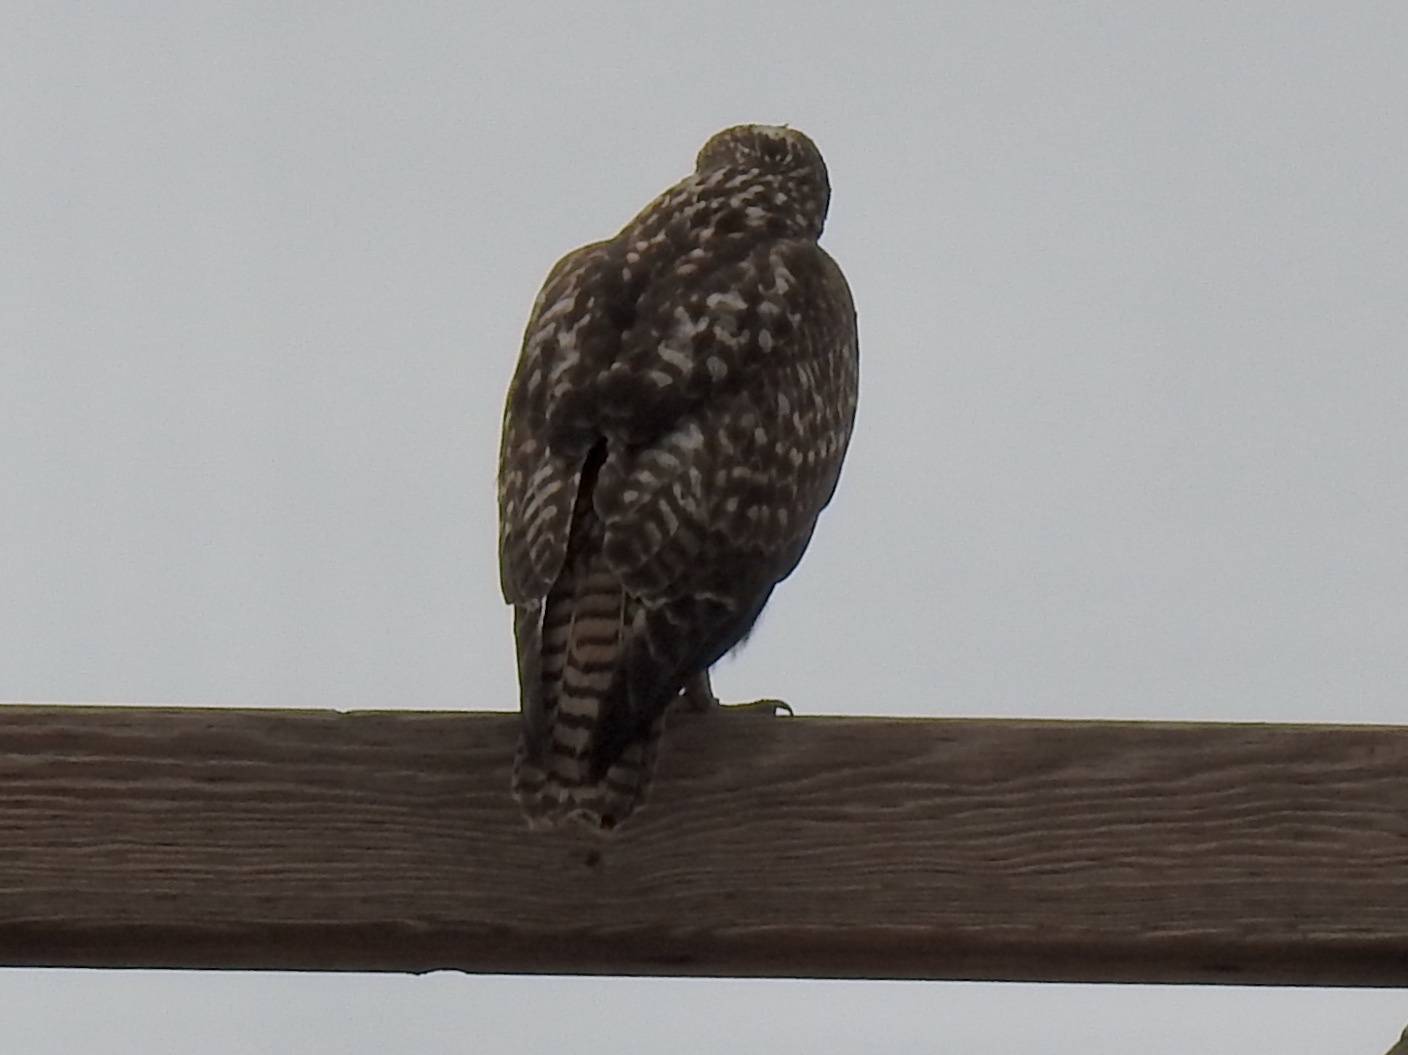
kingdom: Animalia
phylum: Chordata
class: Aves
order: Accipitriformes
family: Accipitridae
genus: Buteo
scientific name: Buteo jamaicensis
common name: Red-tailed hawk
